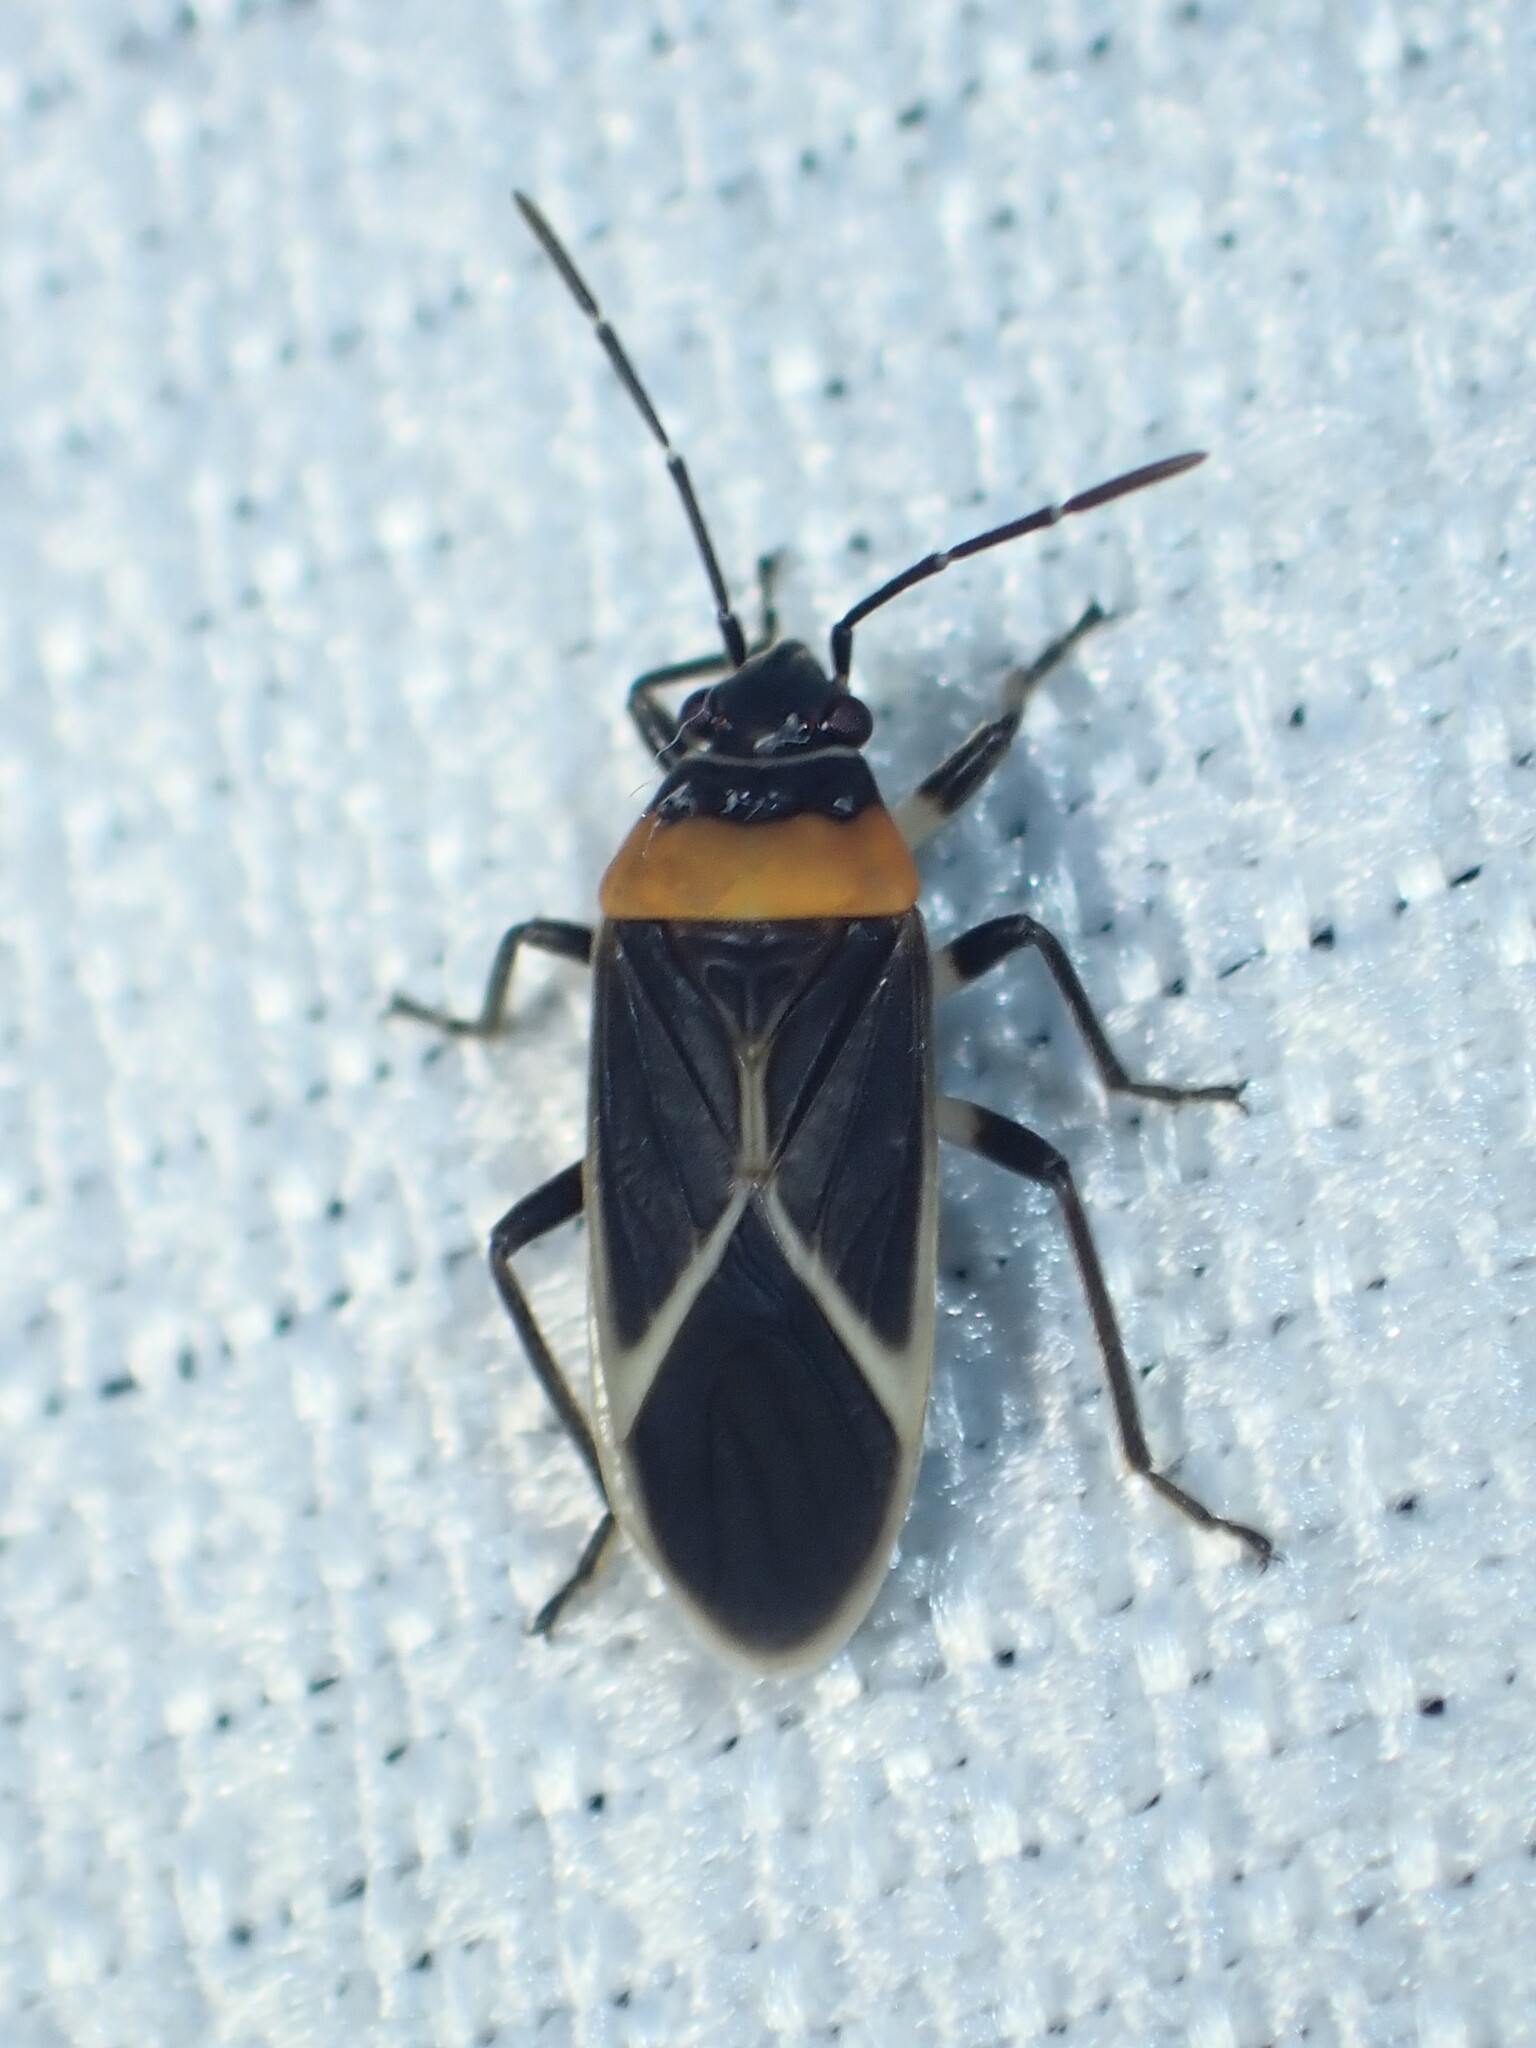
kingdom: Animalia
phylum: Arthropoda
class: Insecta
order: Hemiptera
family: Lygaeidae
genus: Ochrimnus
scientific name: Ochrimnus collaris
